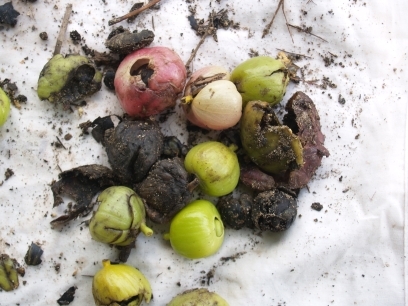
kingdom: Plantae
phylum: Tracheophyta
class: Magnoliopsida
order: Laurales
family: Hernandiaceae
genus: Hernandia
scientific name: Hernandia nymphaeifolia
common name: Sea hearse
